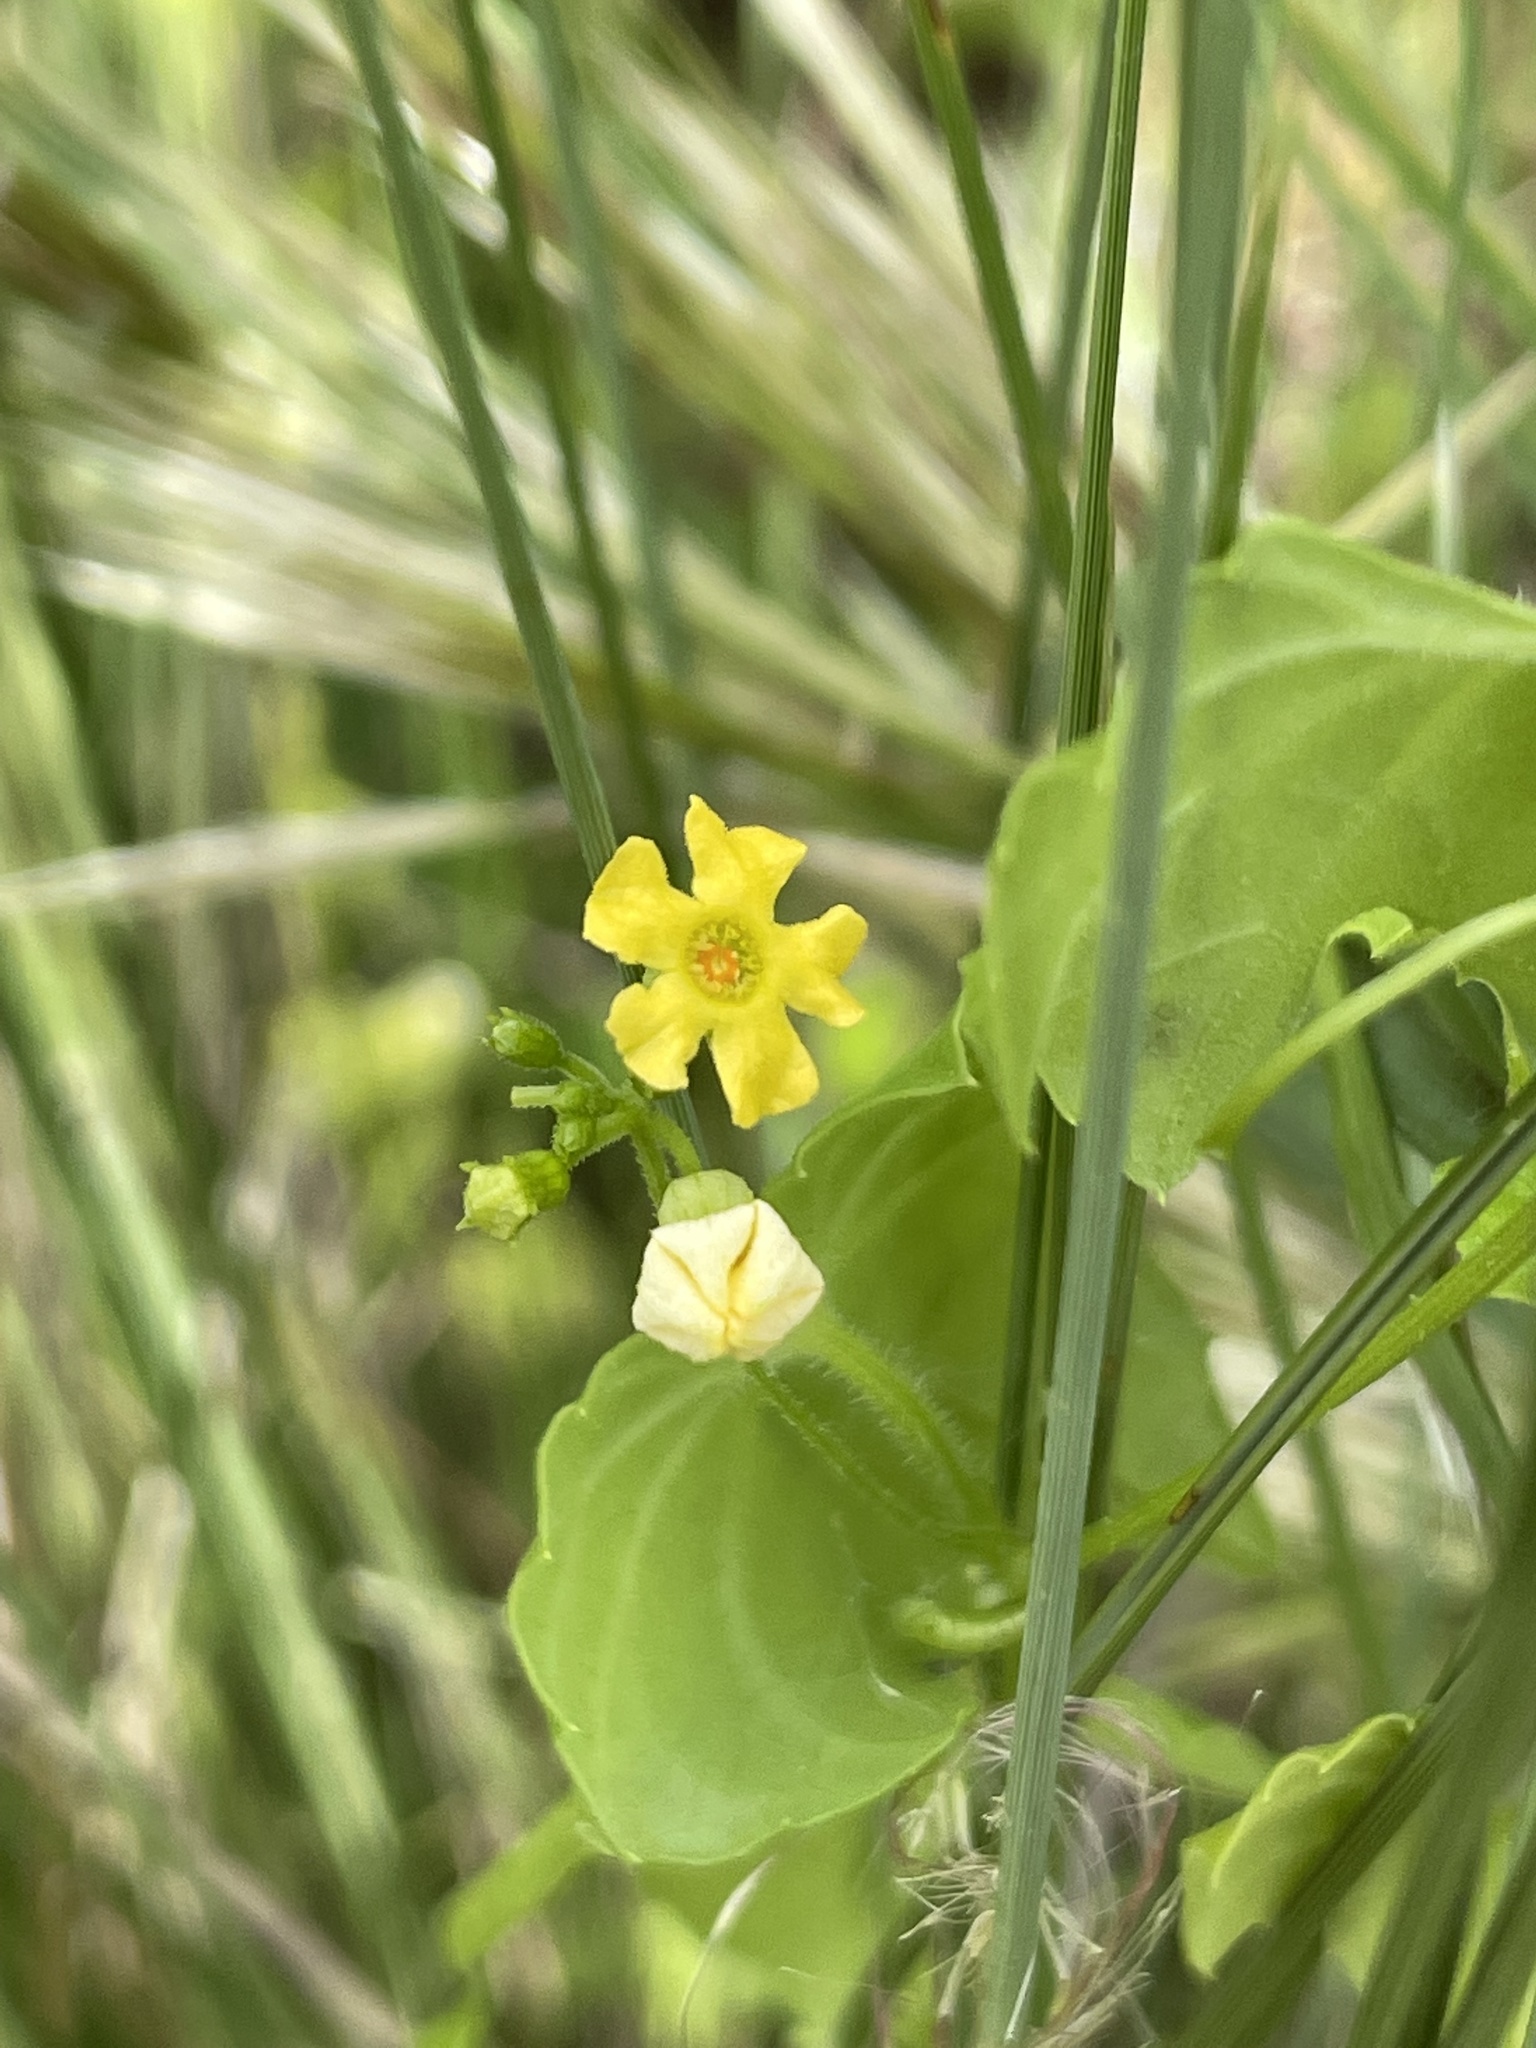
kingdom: Plantae
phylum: Tracheophyta
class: Magnoliopsida
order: Cucurbitales
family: Cucurbitaceae
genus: Melothria
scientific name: Melothria pendula
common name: Creeping-cucumber
